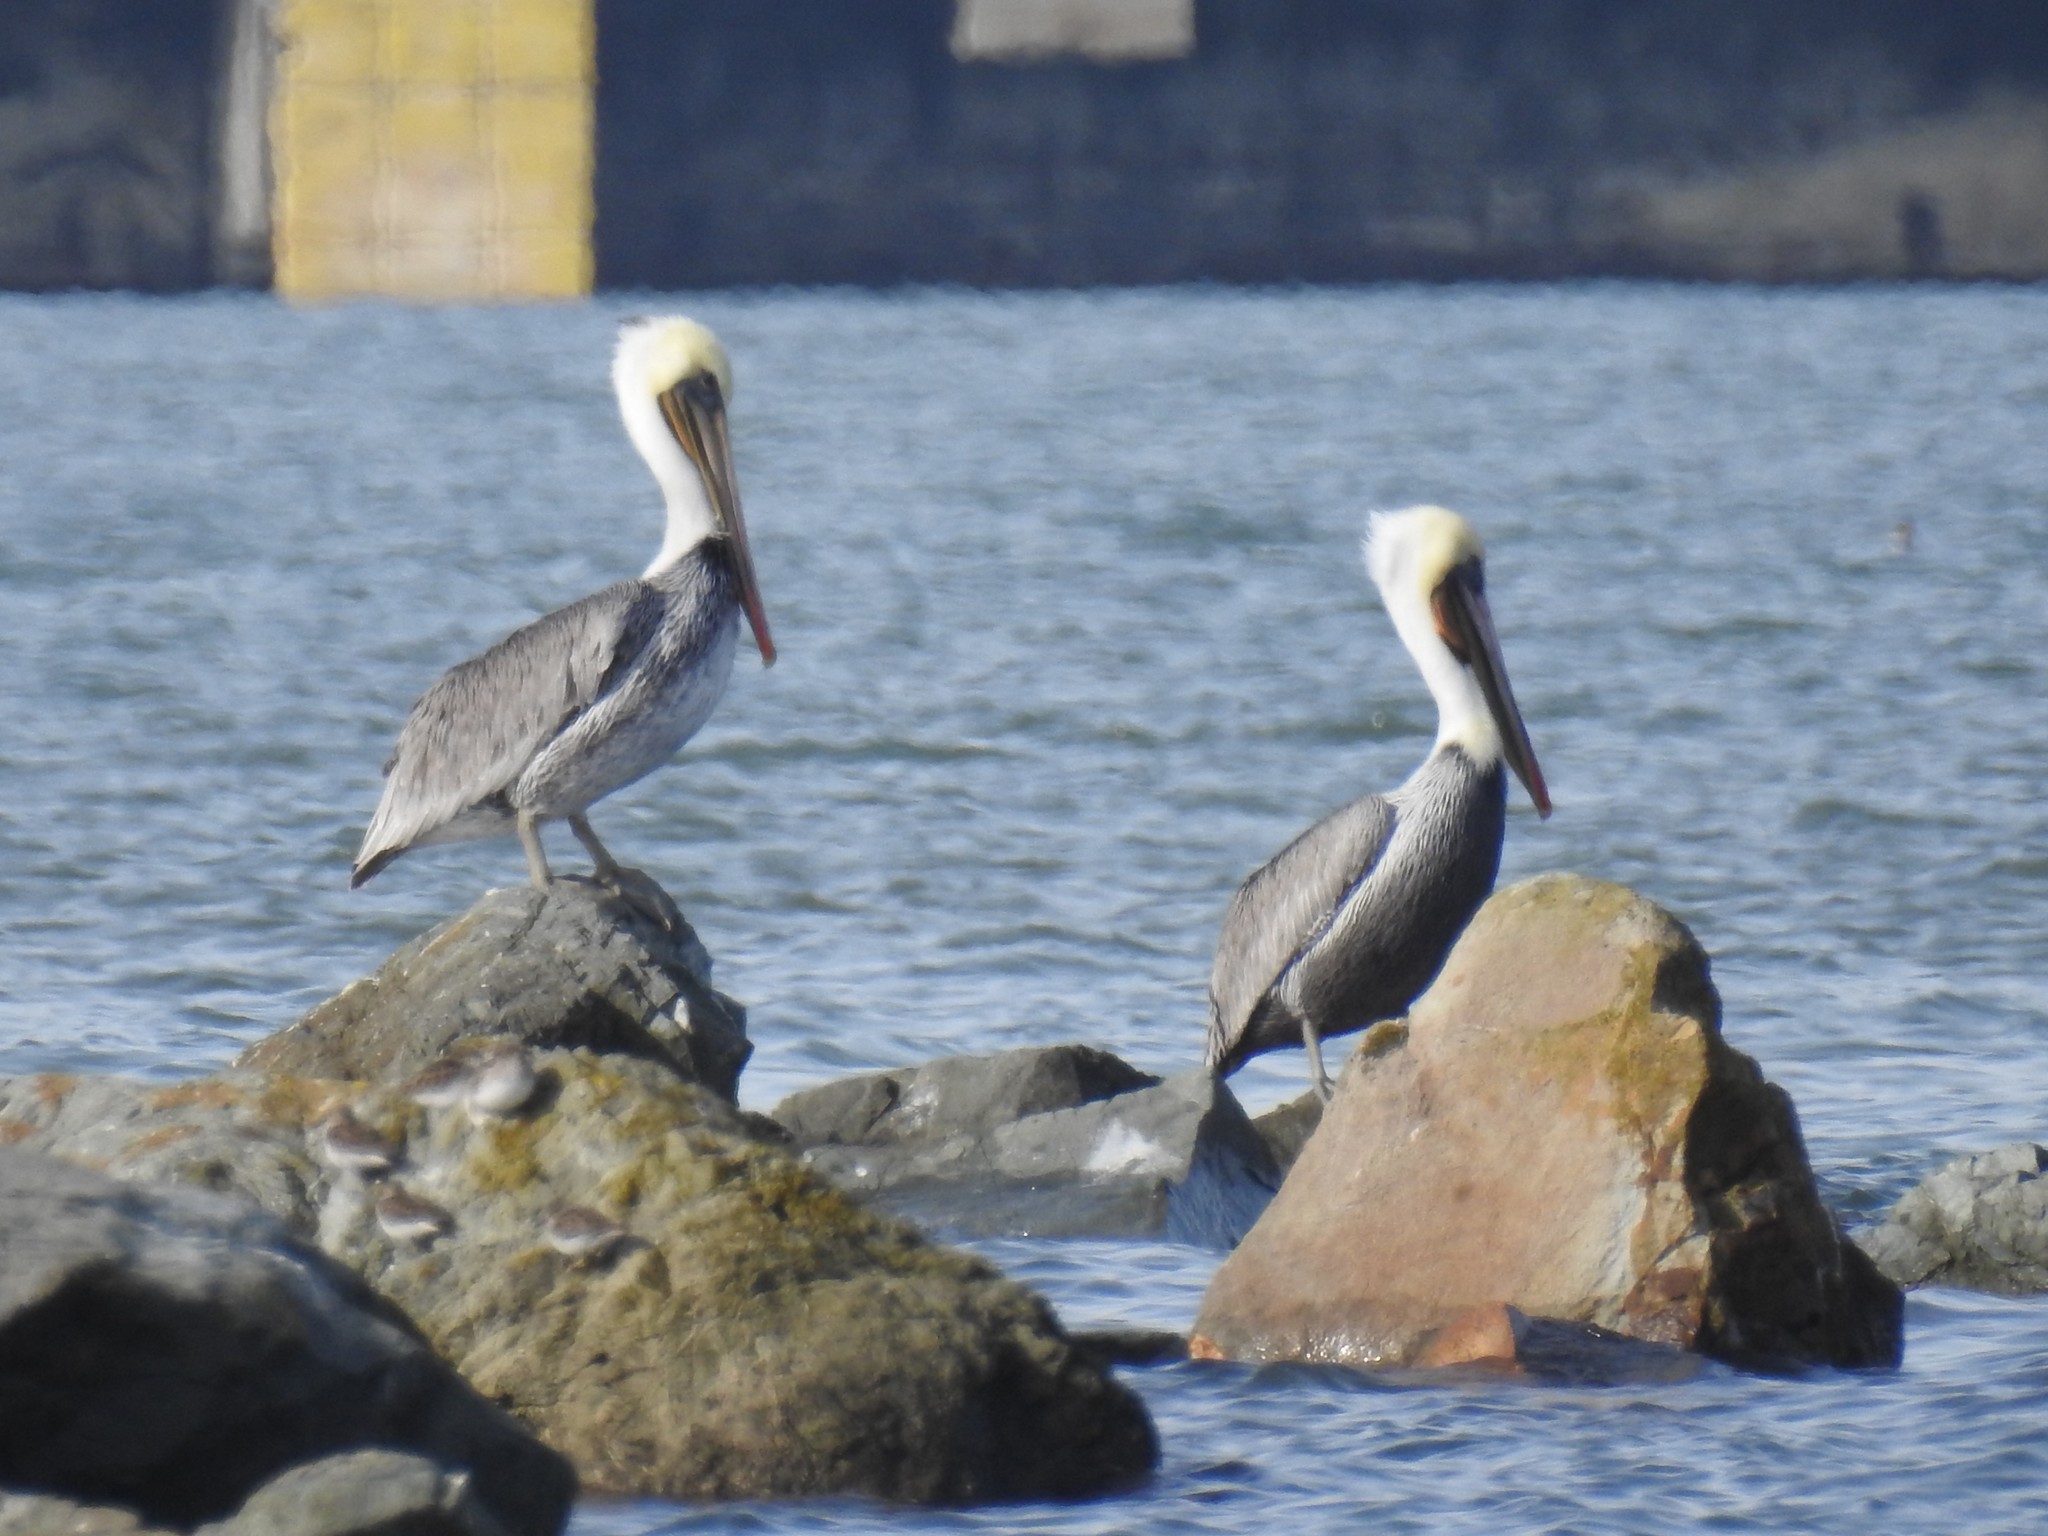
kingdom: Animalia
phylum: Chordata
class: Aves
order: Pelecaniformes
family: Pelecanidae
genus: Pelecanus
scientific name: Pelecanus occidentalis
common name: Brown pelican
